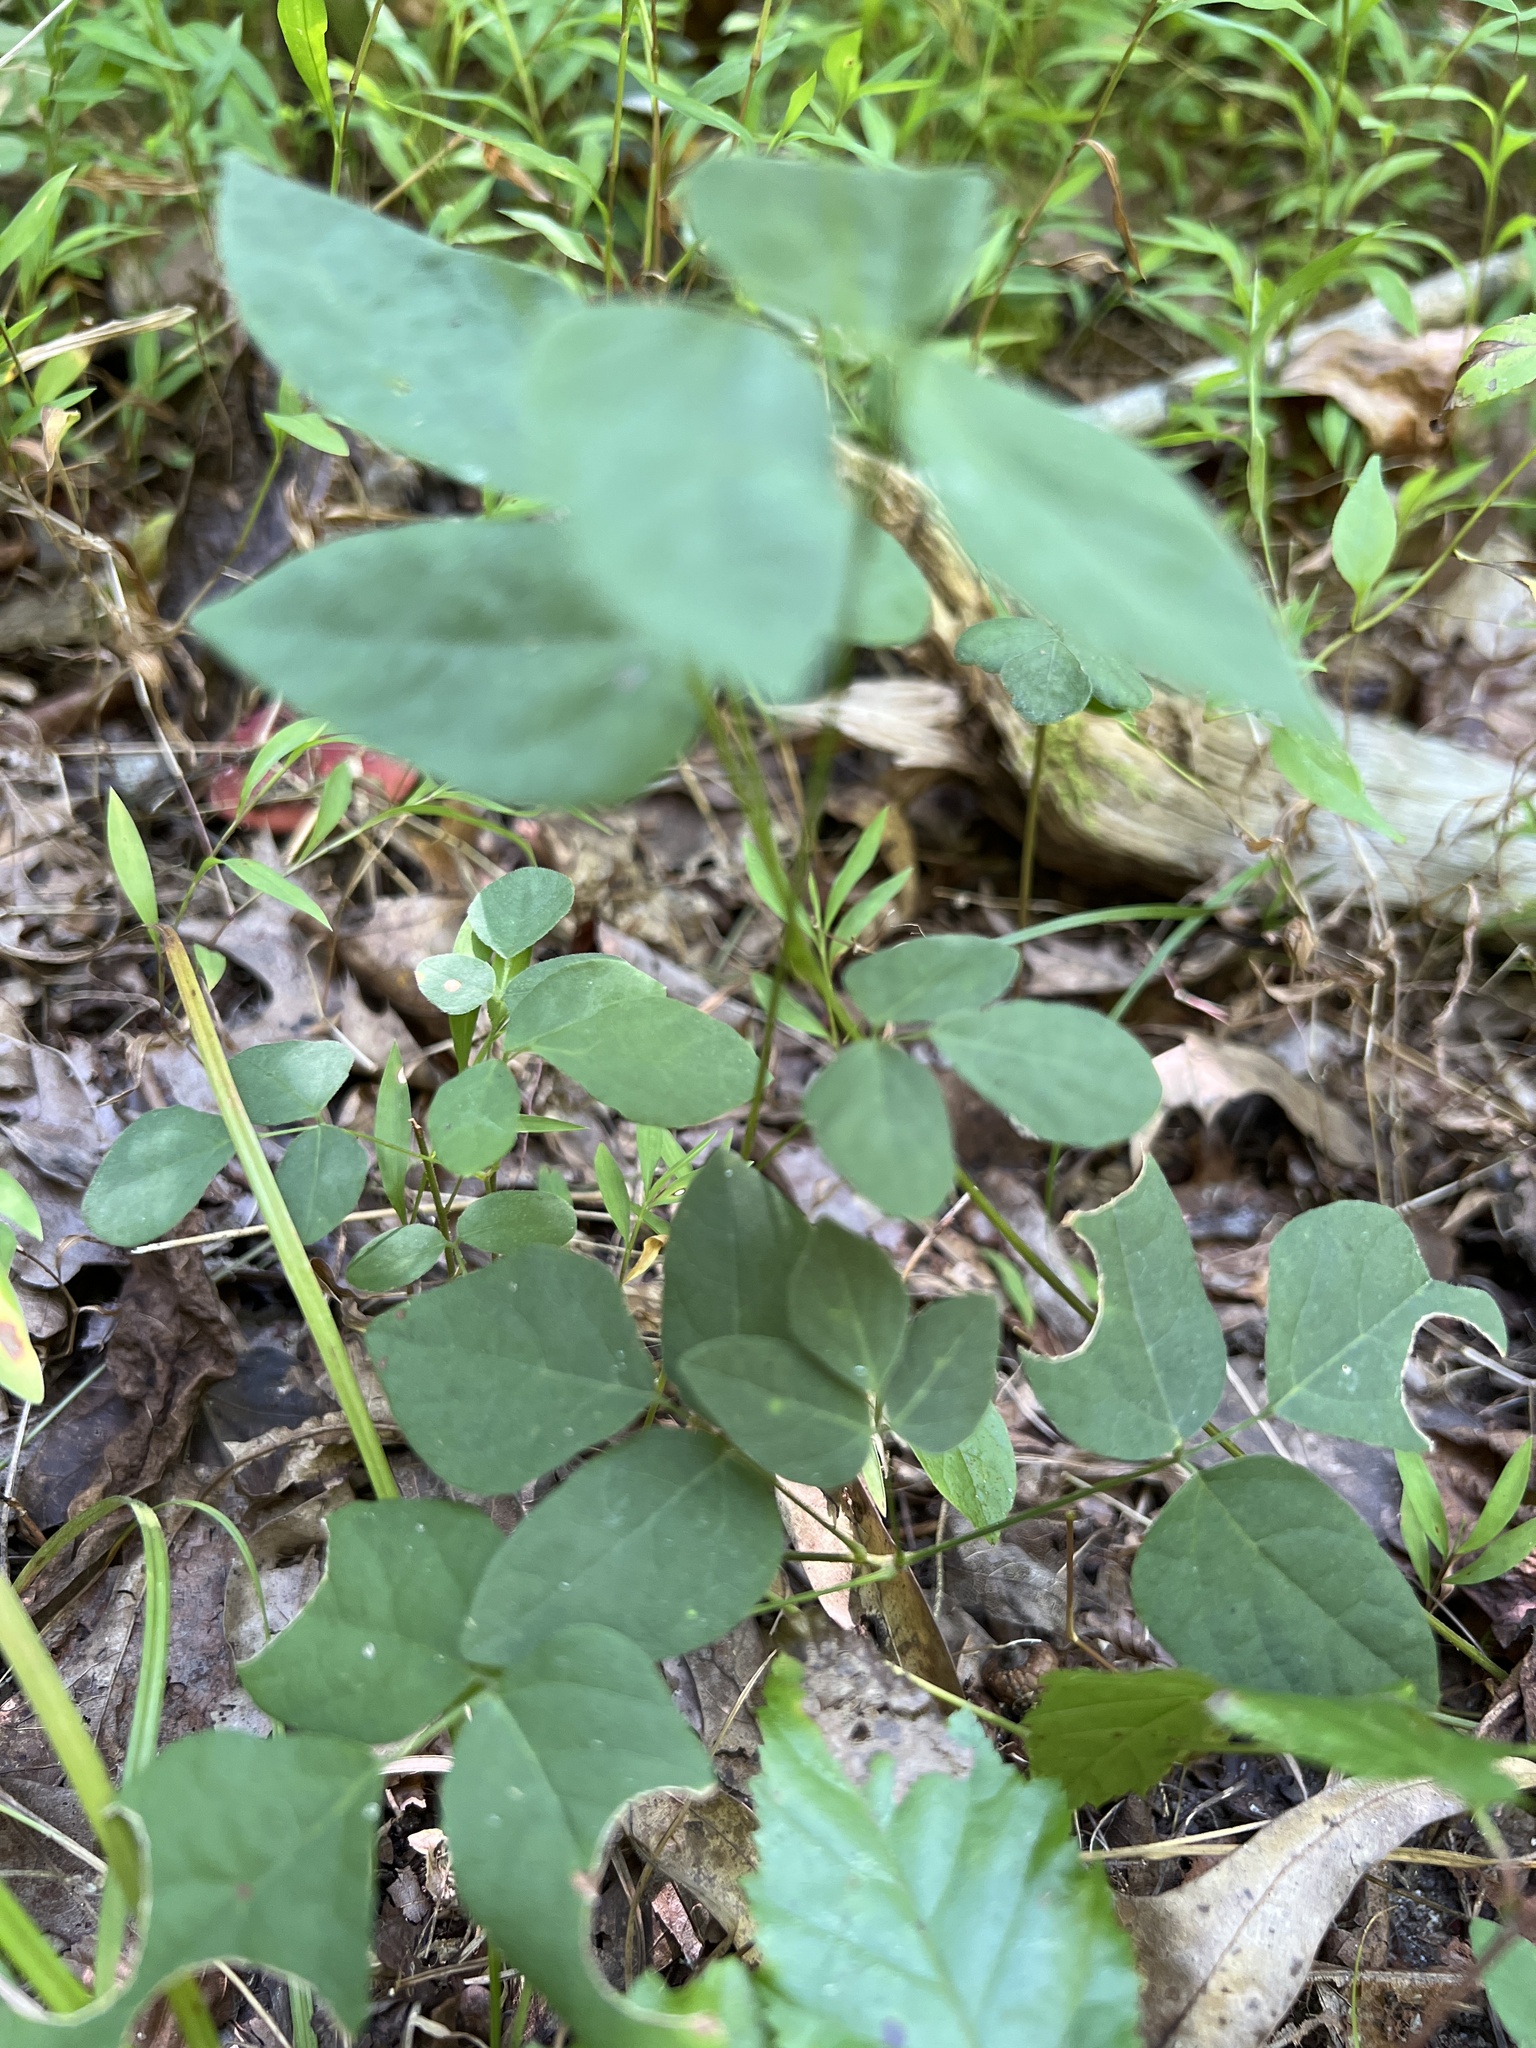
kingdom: Plantae
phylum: Tracheophyta
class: Magnoliopsida
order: Fabales
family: Fabaceae
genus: Hylodesmum
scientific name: Hylodesmum nudiflorum
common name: Bare-stemmed tick-trefoil
